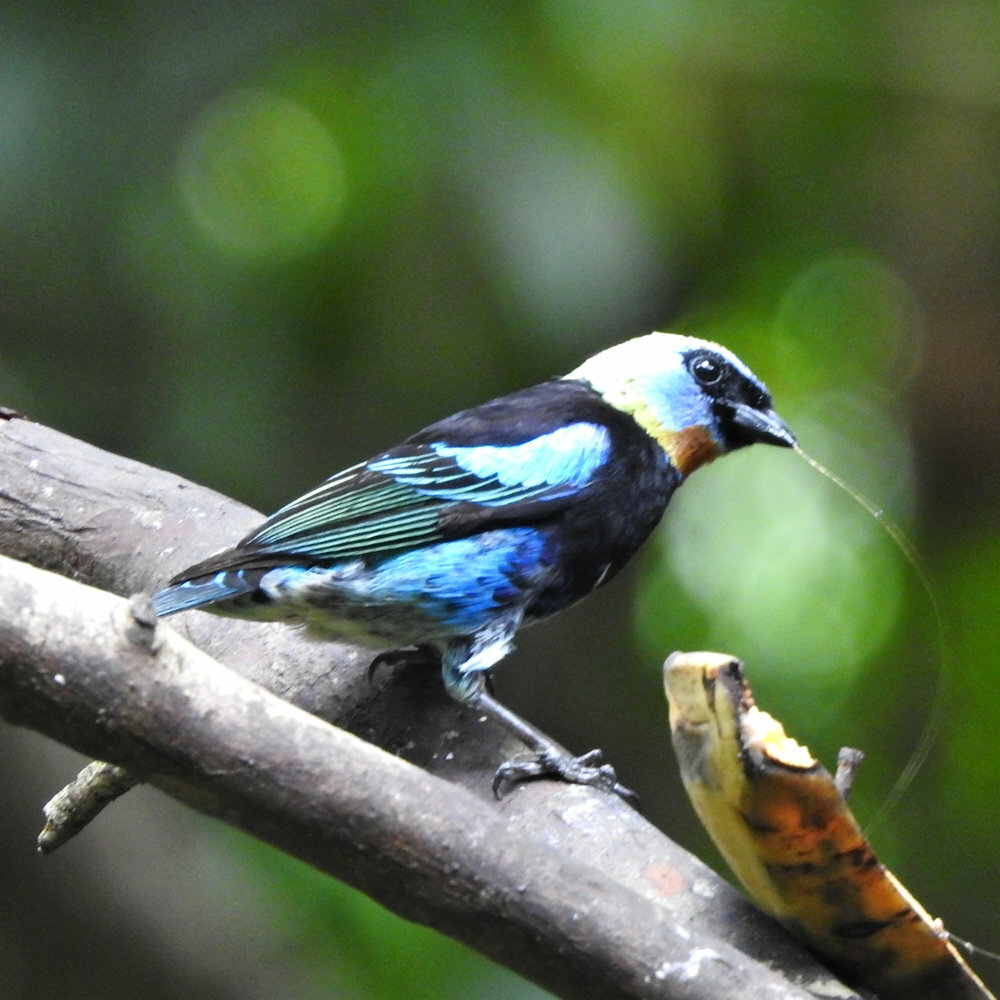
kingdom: Animalia
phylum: Chordata
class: Aves
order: Passeriformes
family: Thraupidae
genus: Stilpnia
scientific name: Stilpnia larvata
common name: Golden-hooded tanager
